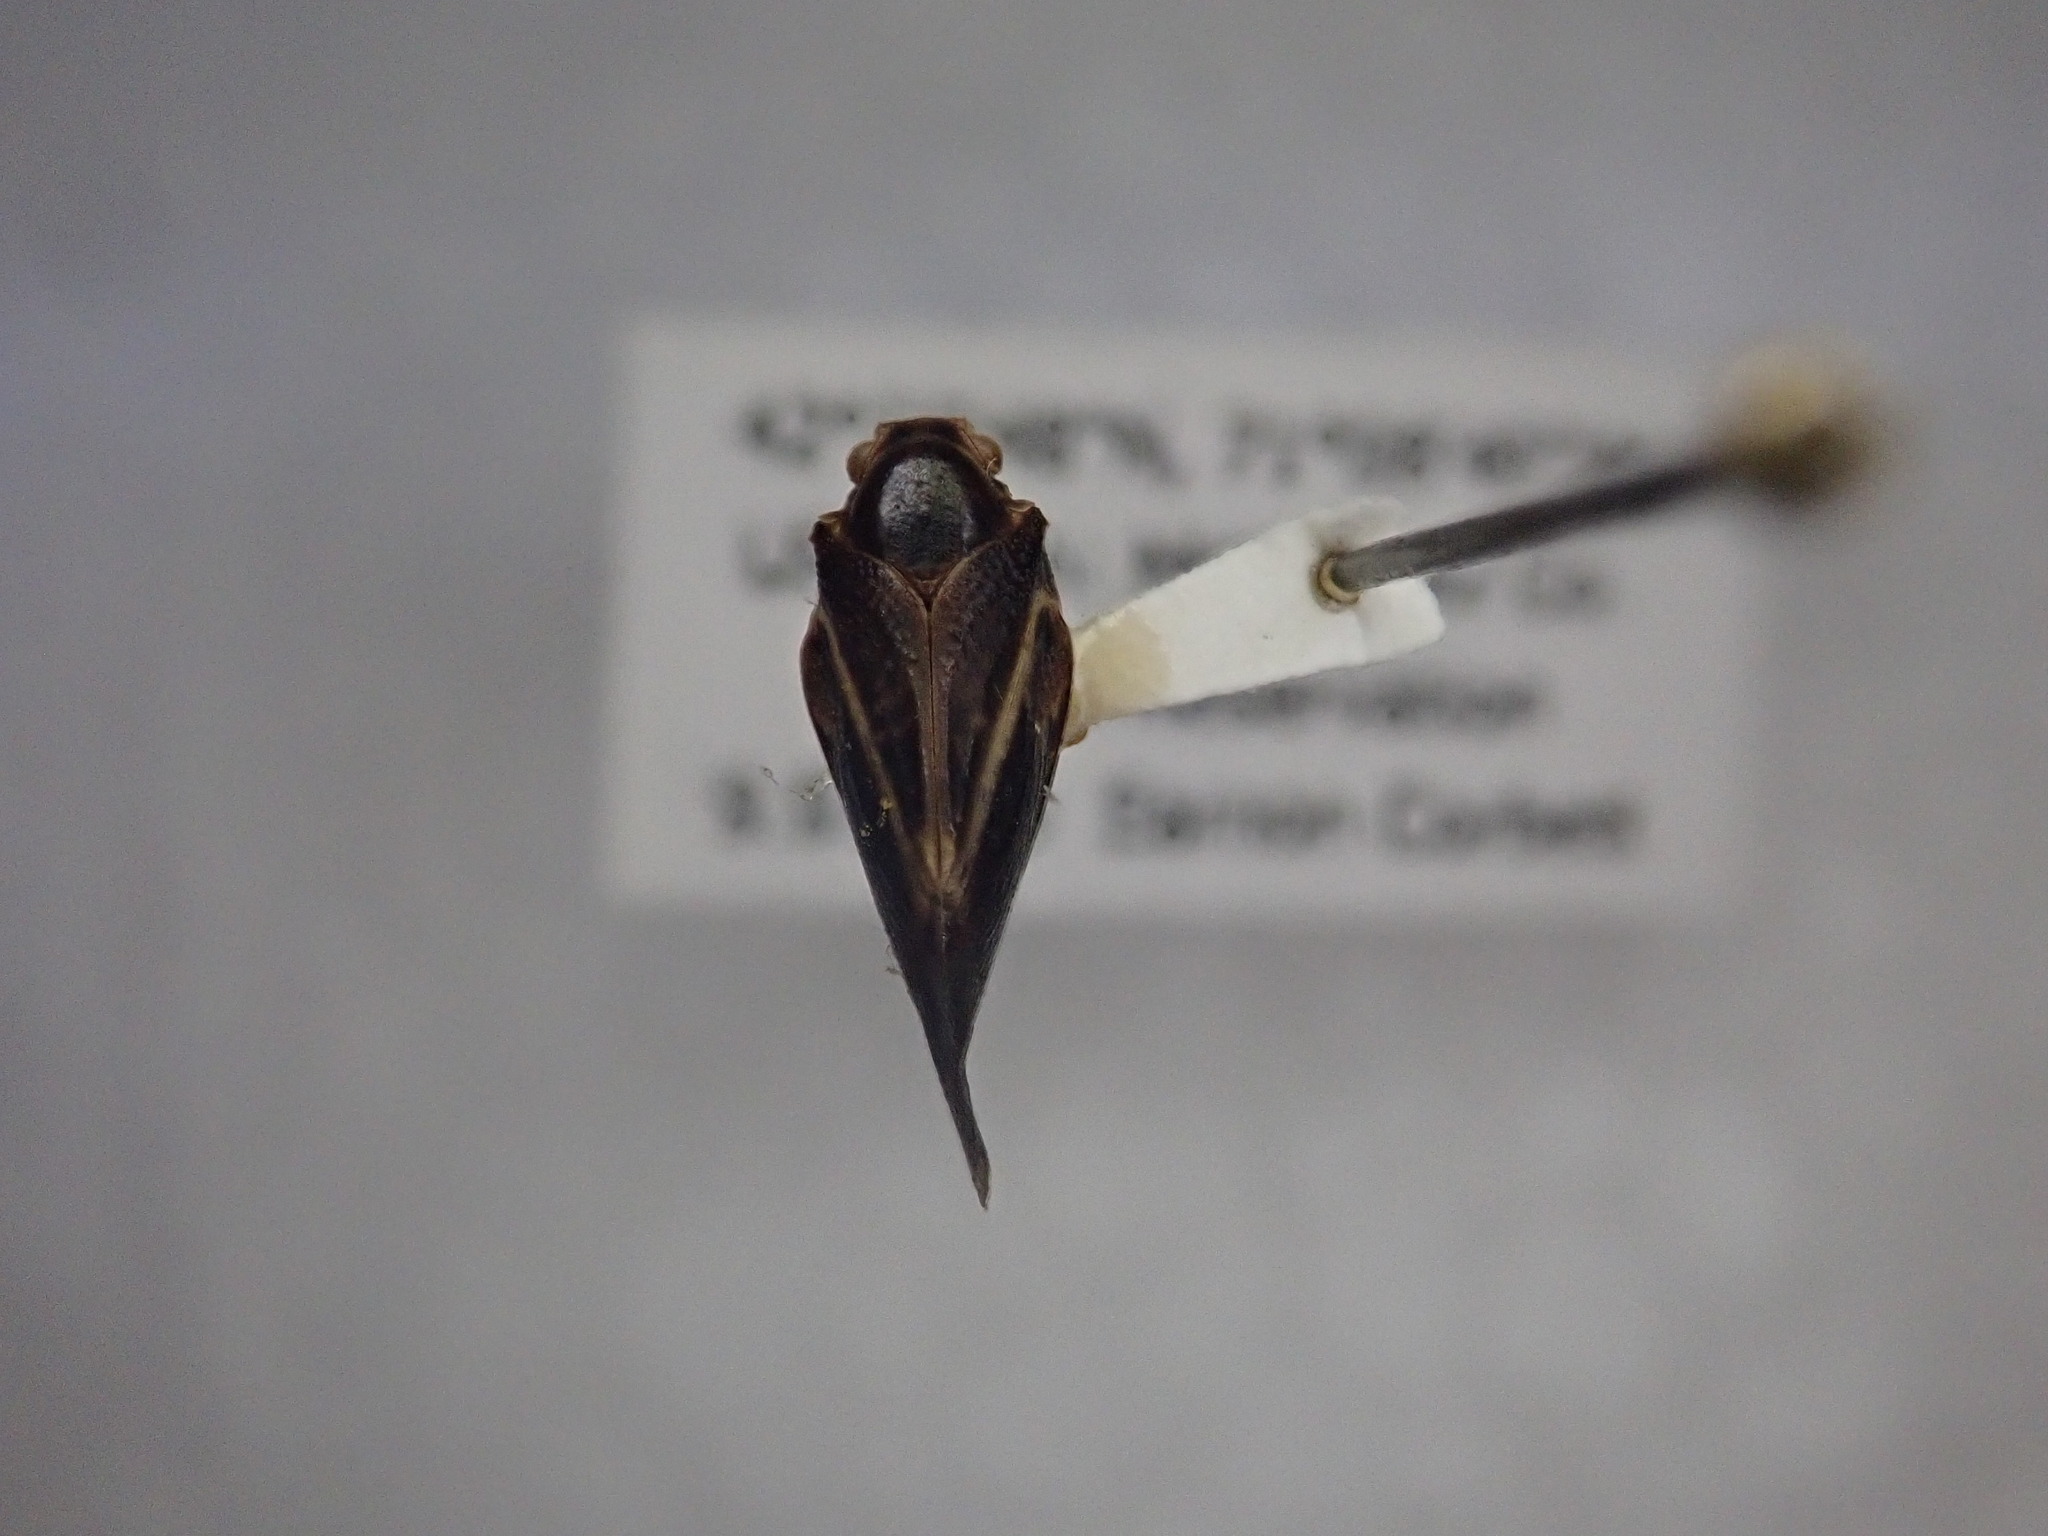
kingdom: Animalia
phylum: Arthropoda
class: Insecta
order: Hemiptera
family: Flatidae
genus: Metcalfa
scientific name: Metcalfa pruinosa
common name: Citrus flatid planthopper
